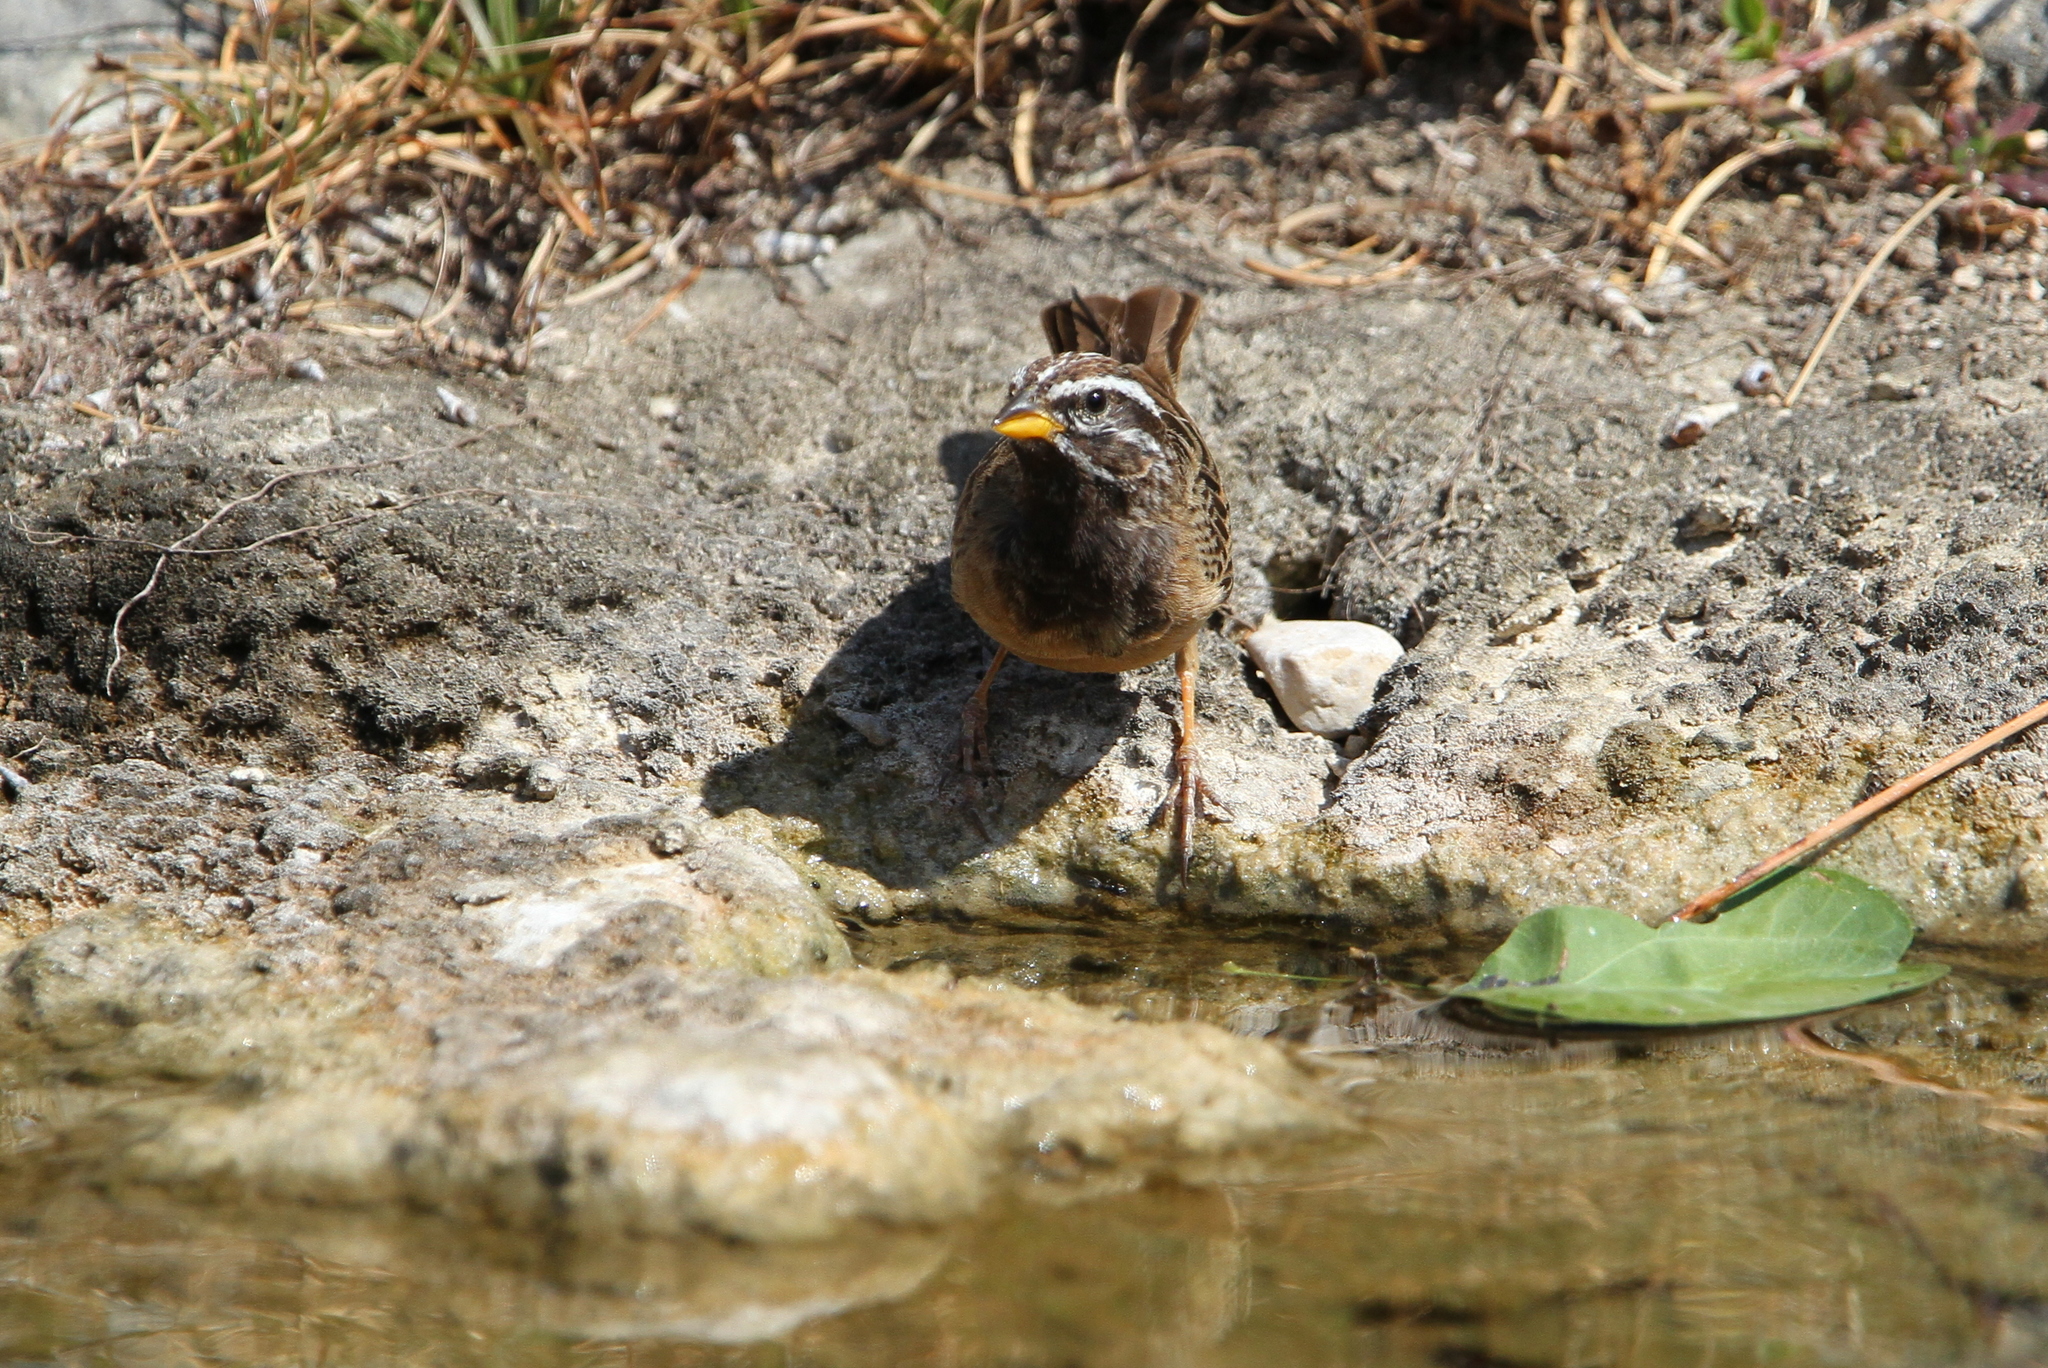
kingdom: Animalia
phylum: Chordata
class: Aves
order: Passeriformes
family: Emberizidae
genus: Emberiza
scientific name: Emberiza tahapisi
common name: Cinnamon-breasted bunting
